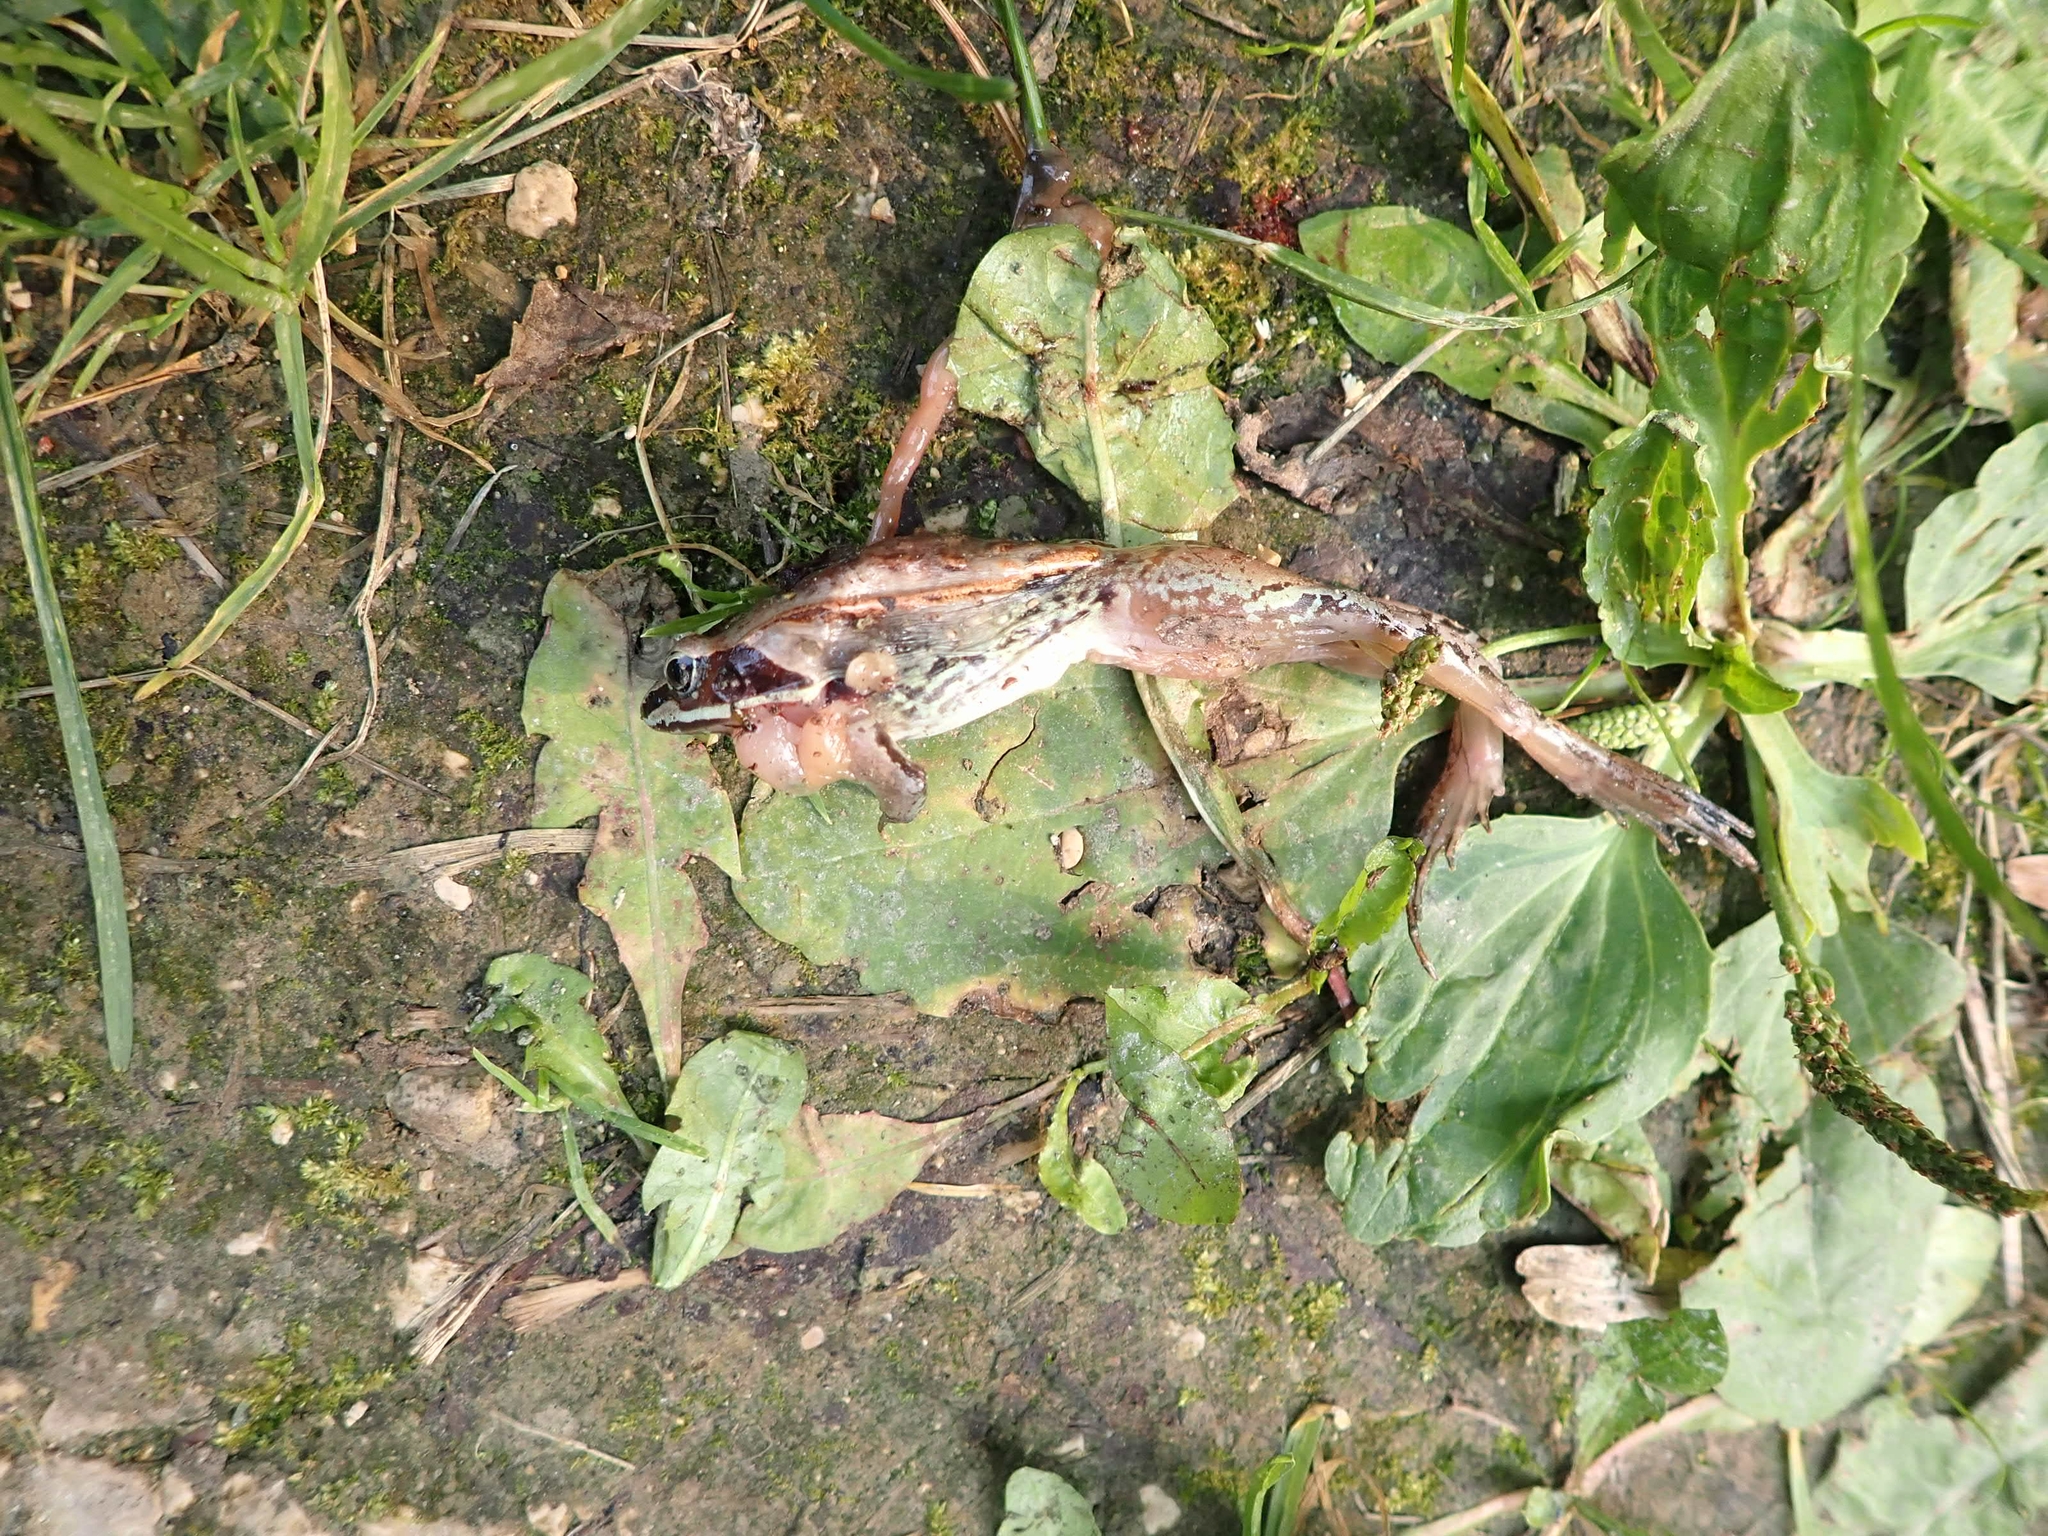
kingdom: Animalia
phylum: Chordata
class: Amphibia
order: Anura
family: Ranidae
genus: Lithobates
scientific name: Lithobates sylvaticus
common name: Wood frog
